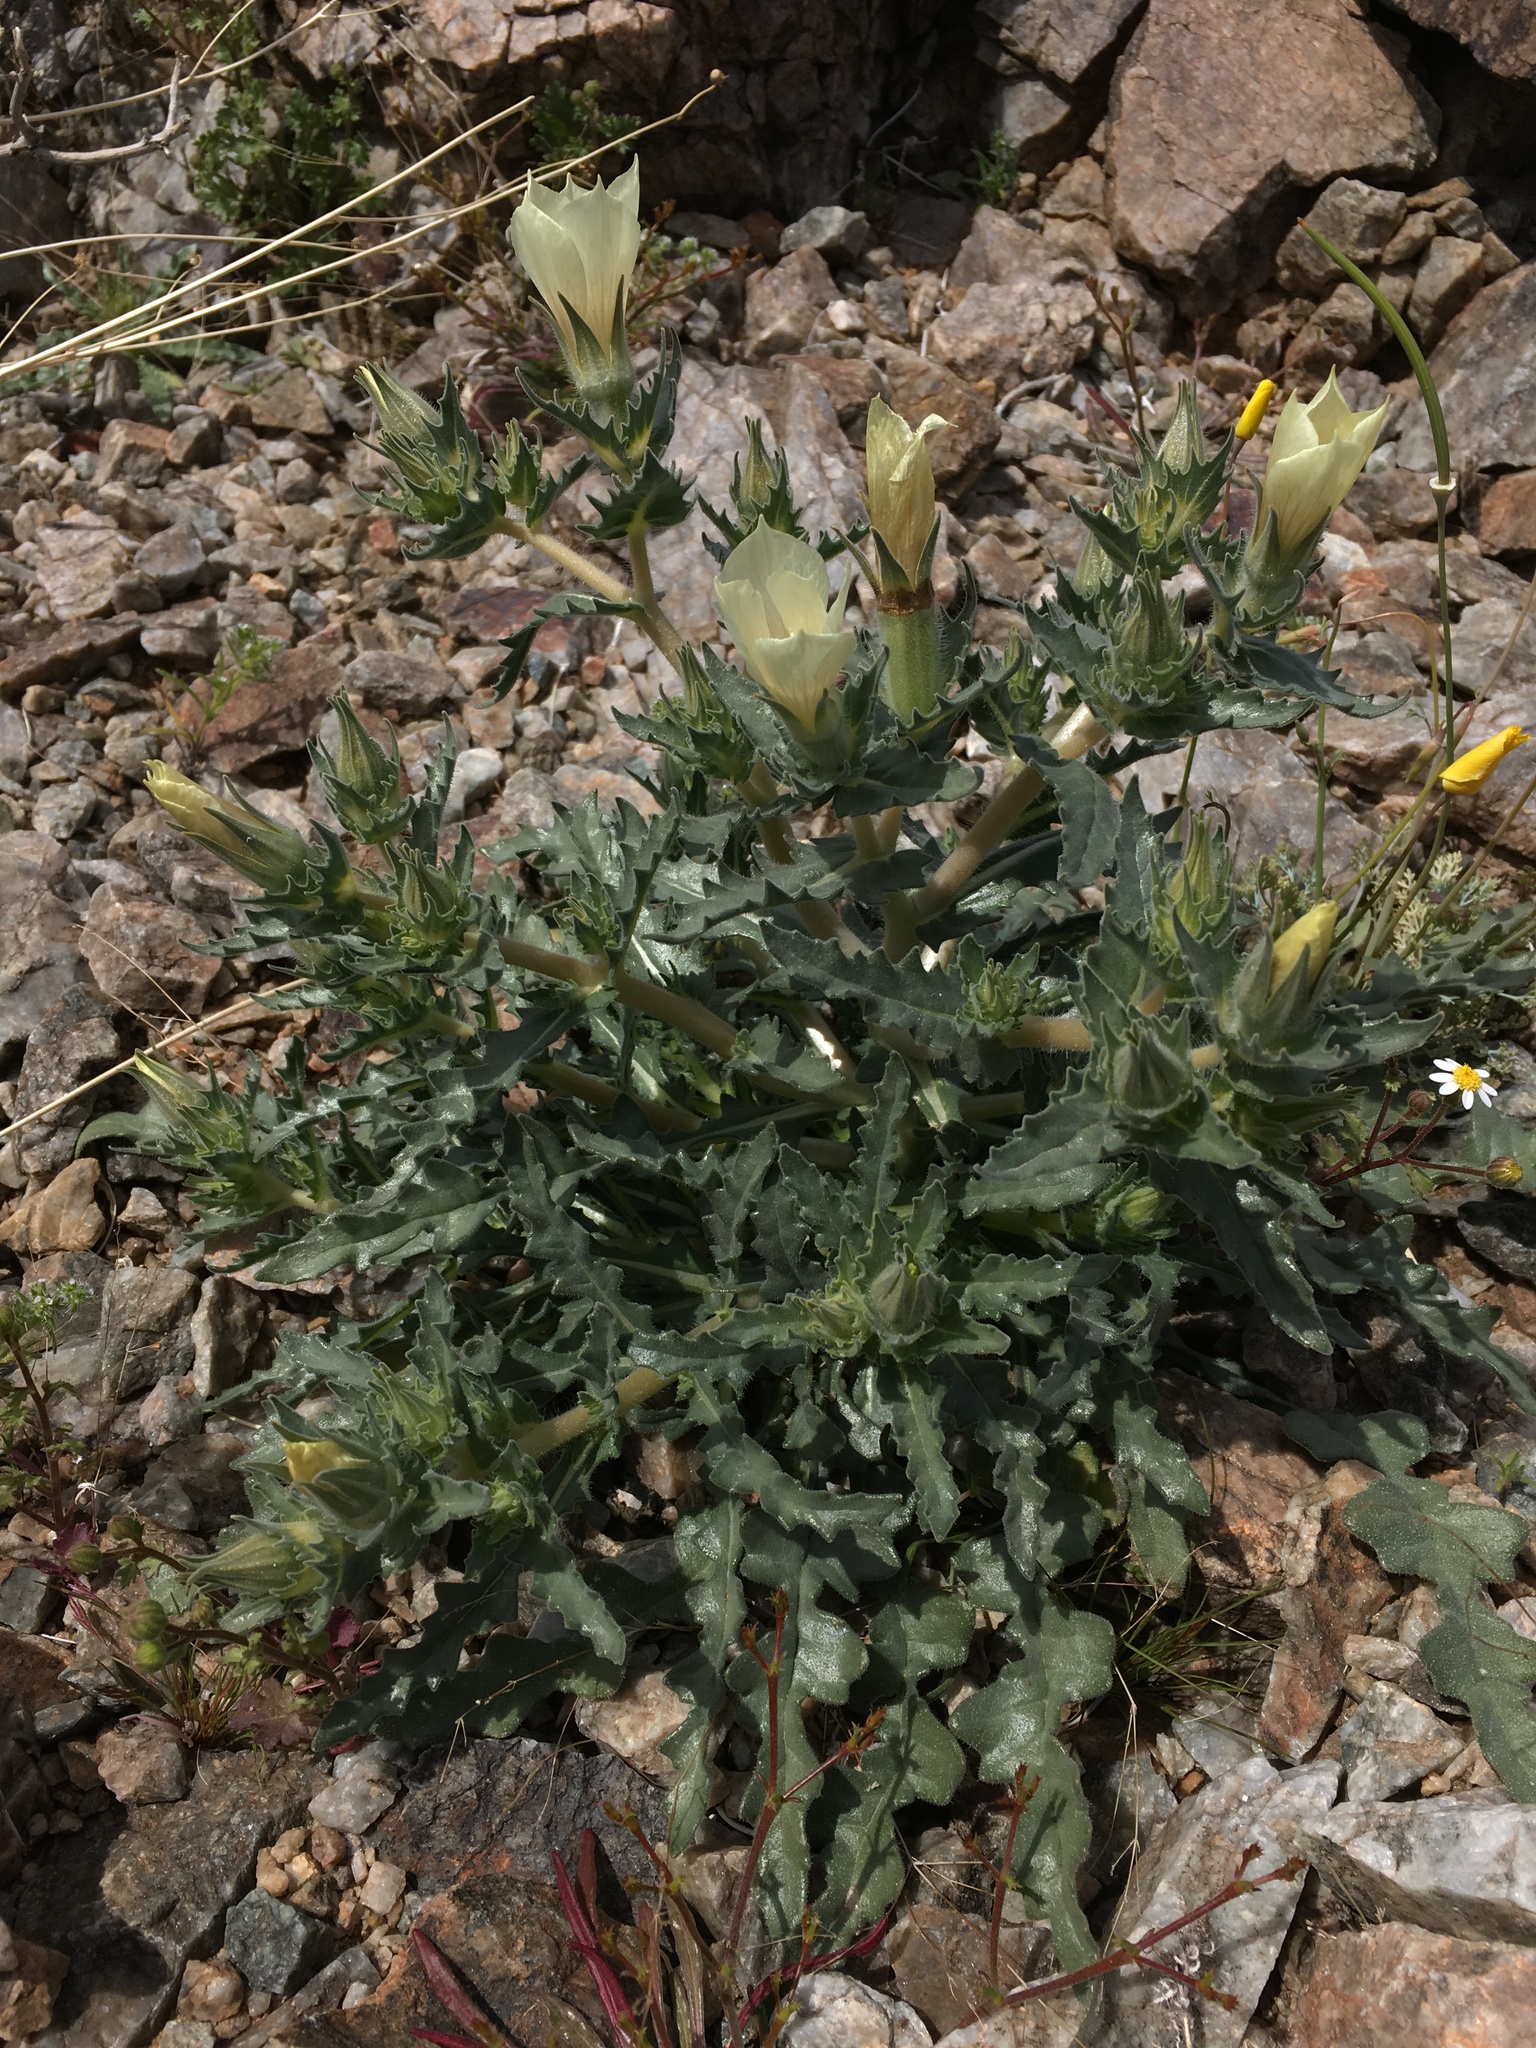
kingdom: Plantae
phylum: Tracheophyta
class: Magnoliopsida
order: Cornales
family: Loasaceae
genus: Mentzelia
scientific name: Mentzelia involucrata
